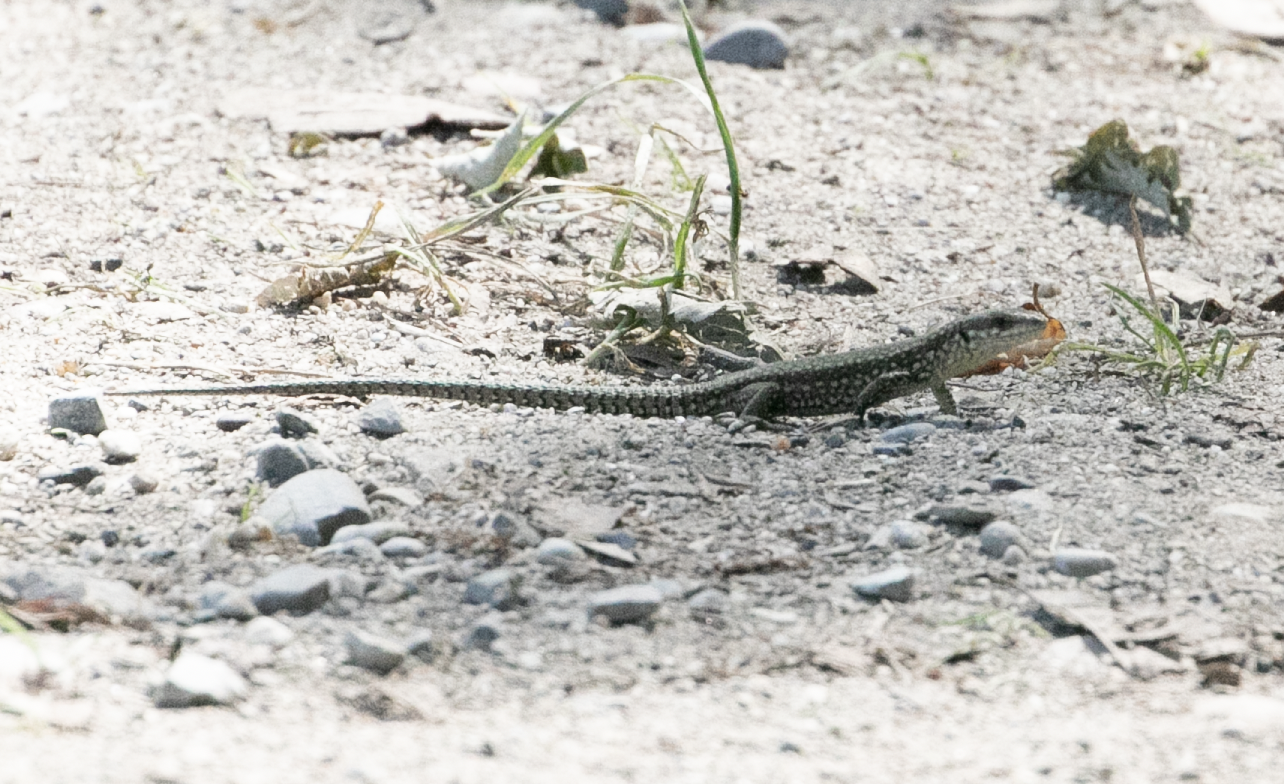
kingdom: Animalia
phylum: Chordata
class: Squamata
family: Lacertidae
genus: Podarcis
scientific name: Podarcis muralis
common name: Common wall lizard
